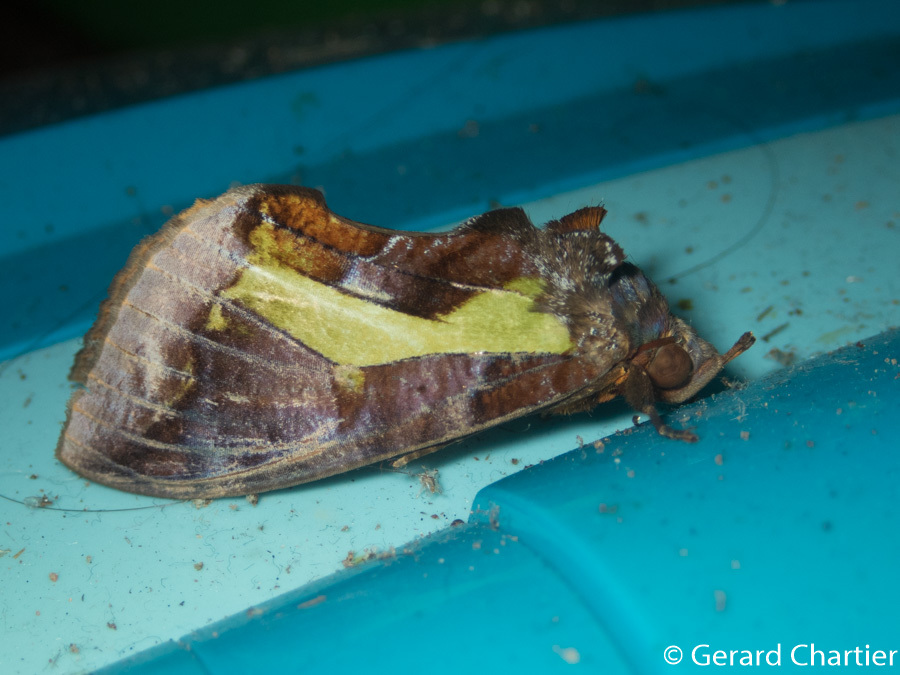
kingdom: Animalia
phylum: Arthropoda
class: Insecta
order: Lepidoptera
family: Erebidae
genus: Eudocima
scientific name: Eudocima homaena
